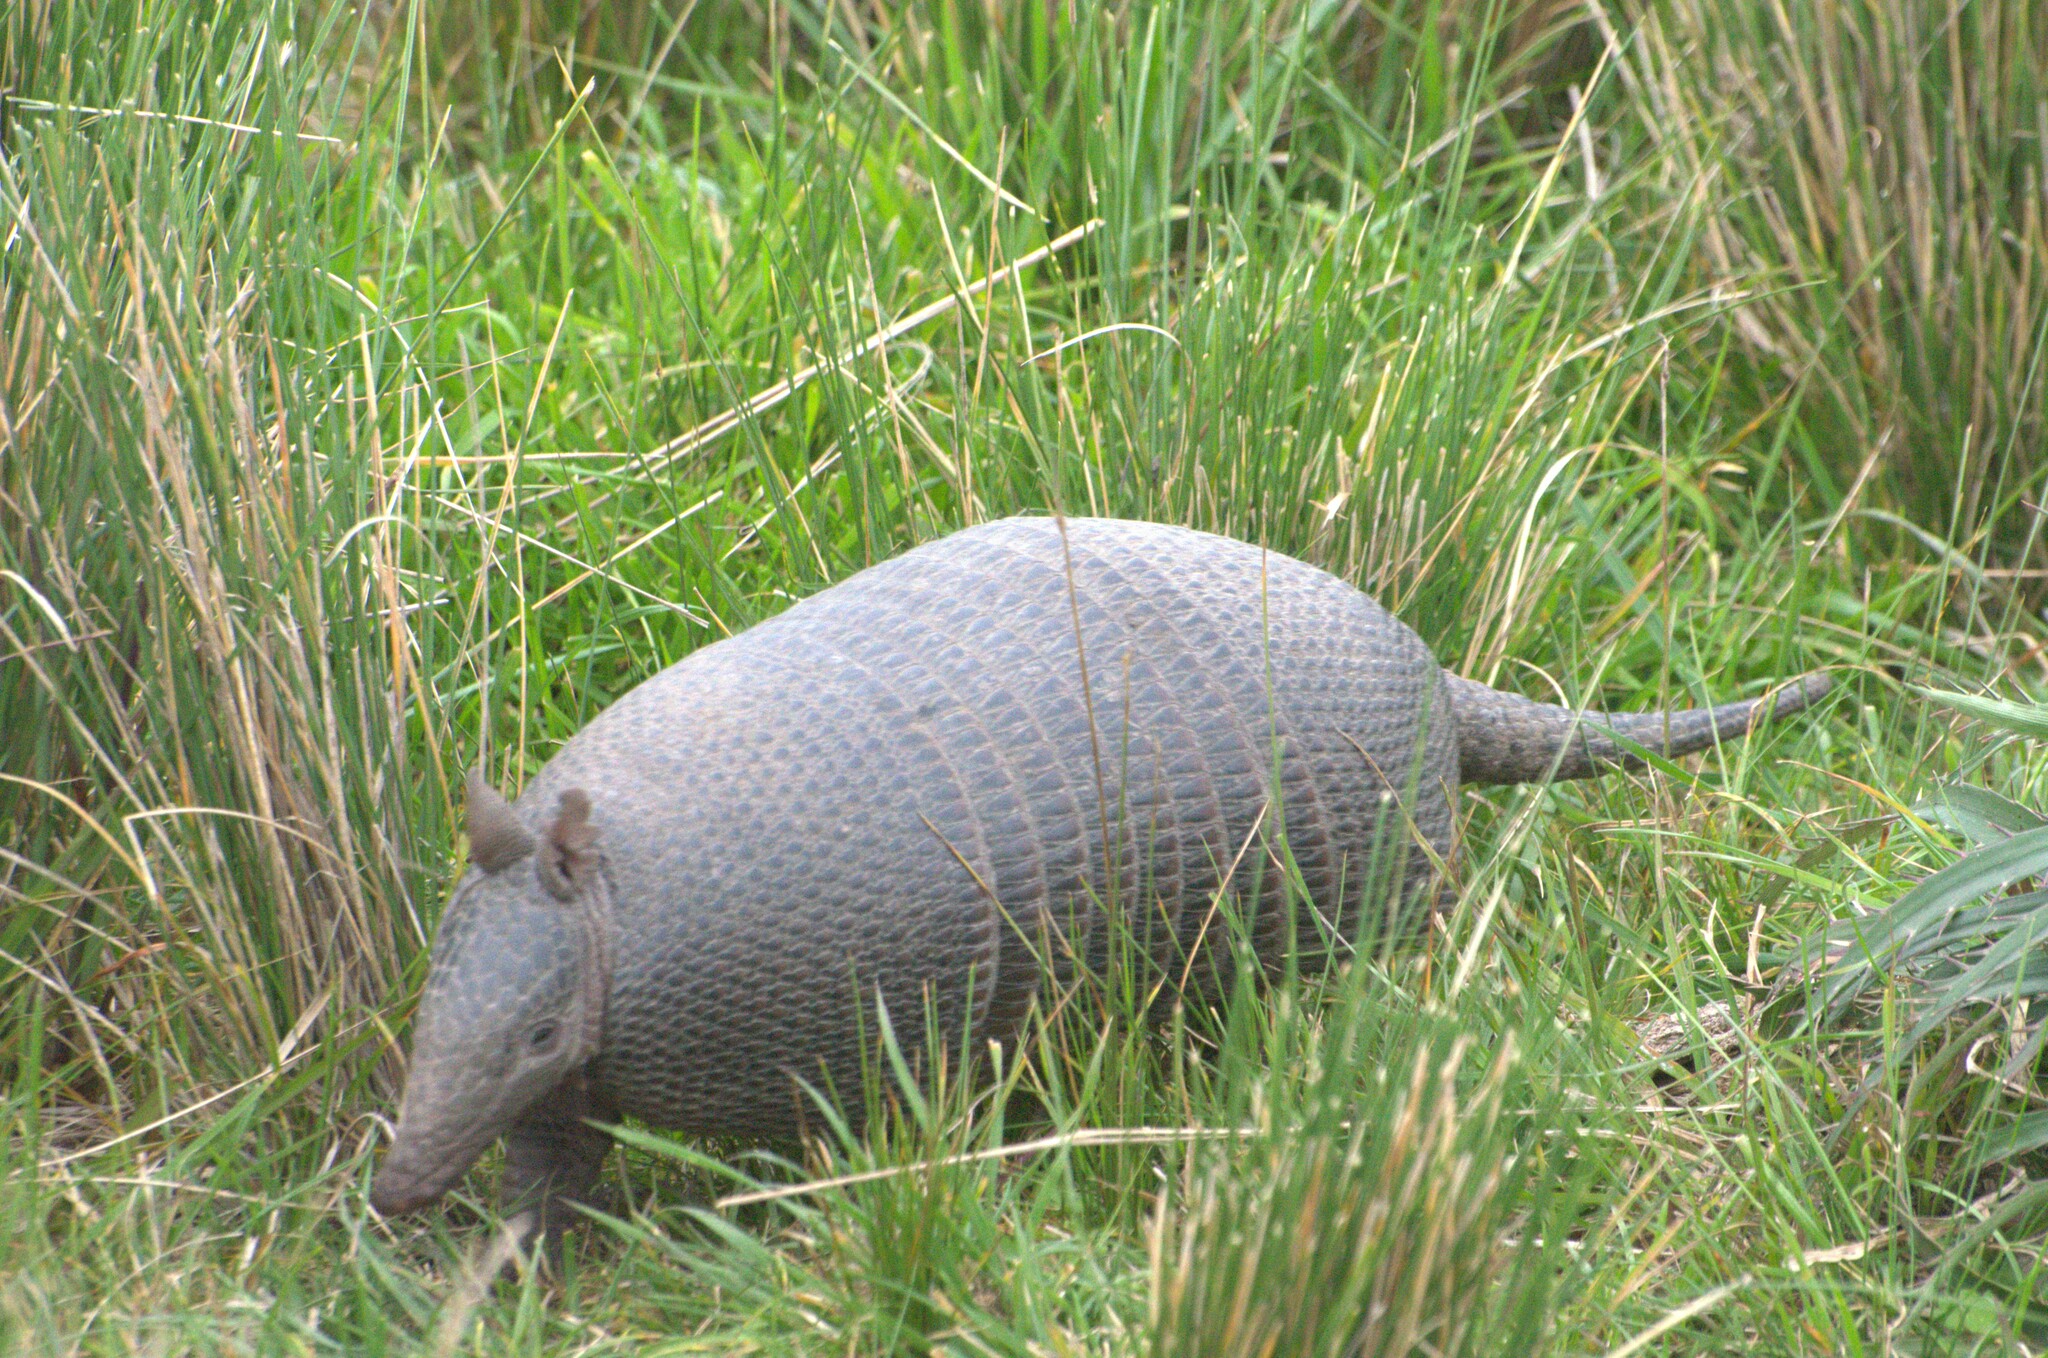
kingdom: Animalia
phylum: Chordata
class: Mammalia
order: Cingulata
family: Dasypodidae
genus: Dasypus
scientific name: Dasypus septemcinctus
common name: Seven-banded armadillo
